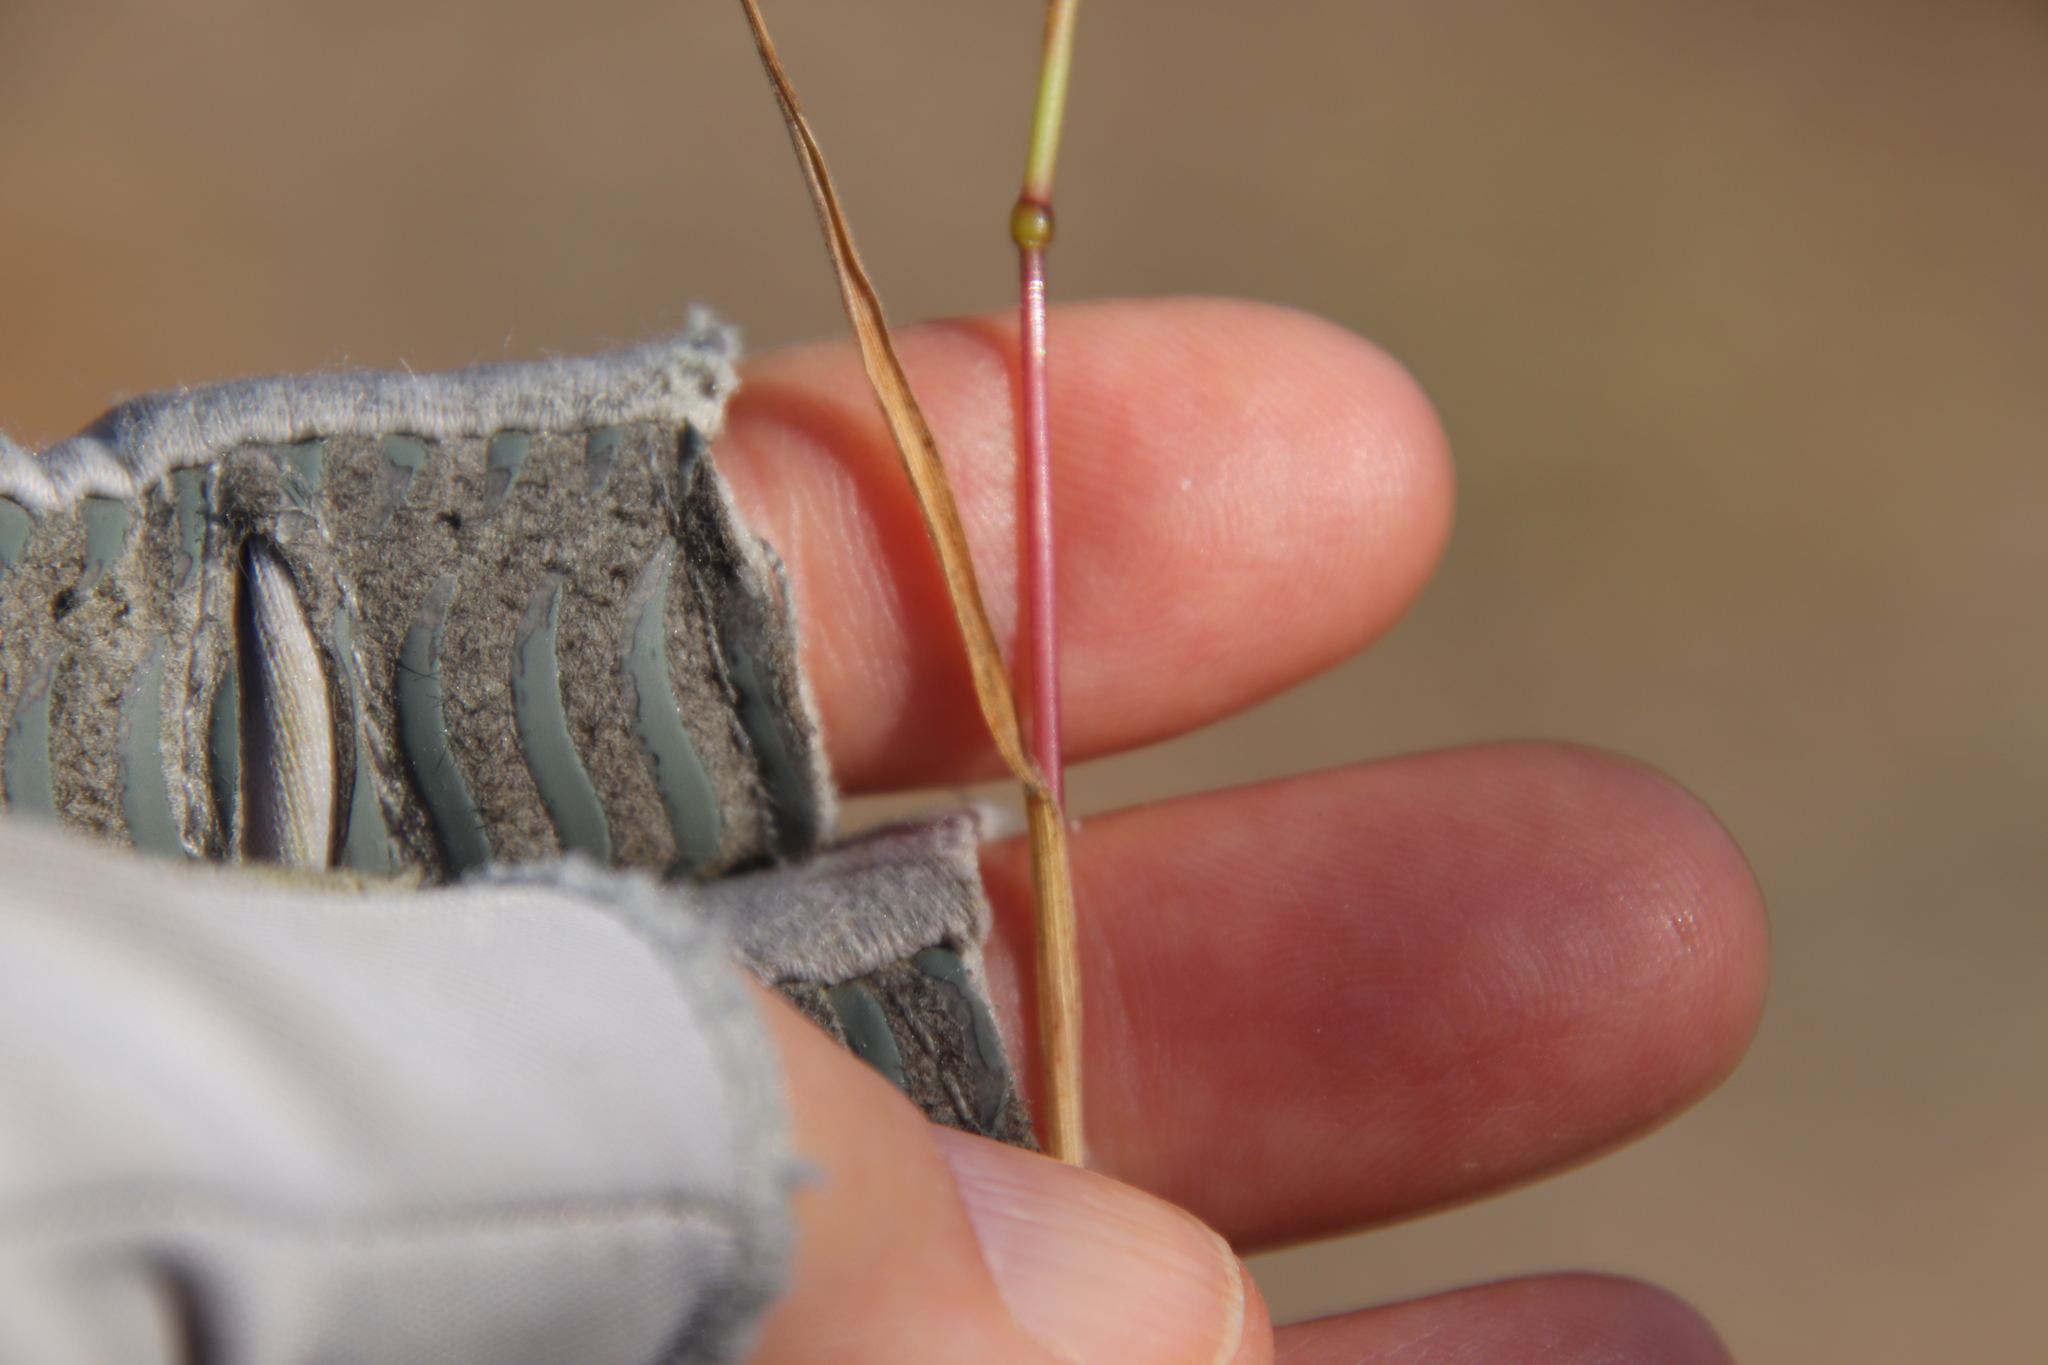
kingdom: Plantae
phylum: Tracheophyta
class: Liliopsida
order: Poales
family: Poaceae
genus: Bromus
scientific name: Bromus rubens
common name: Red brome
